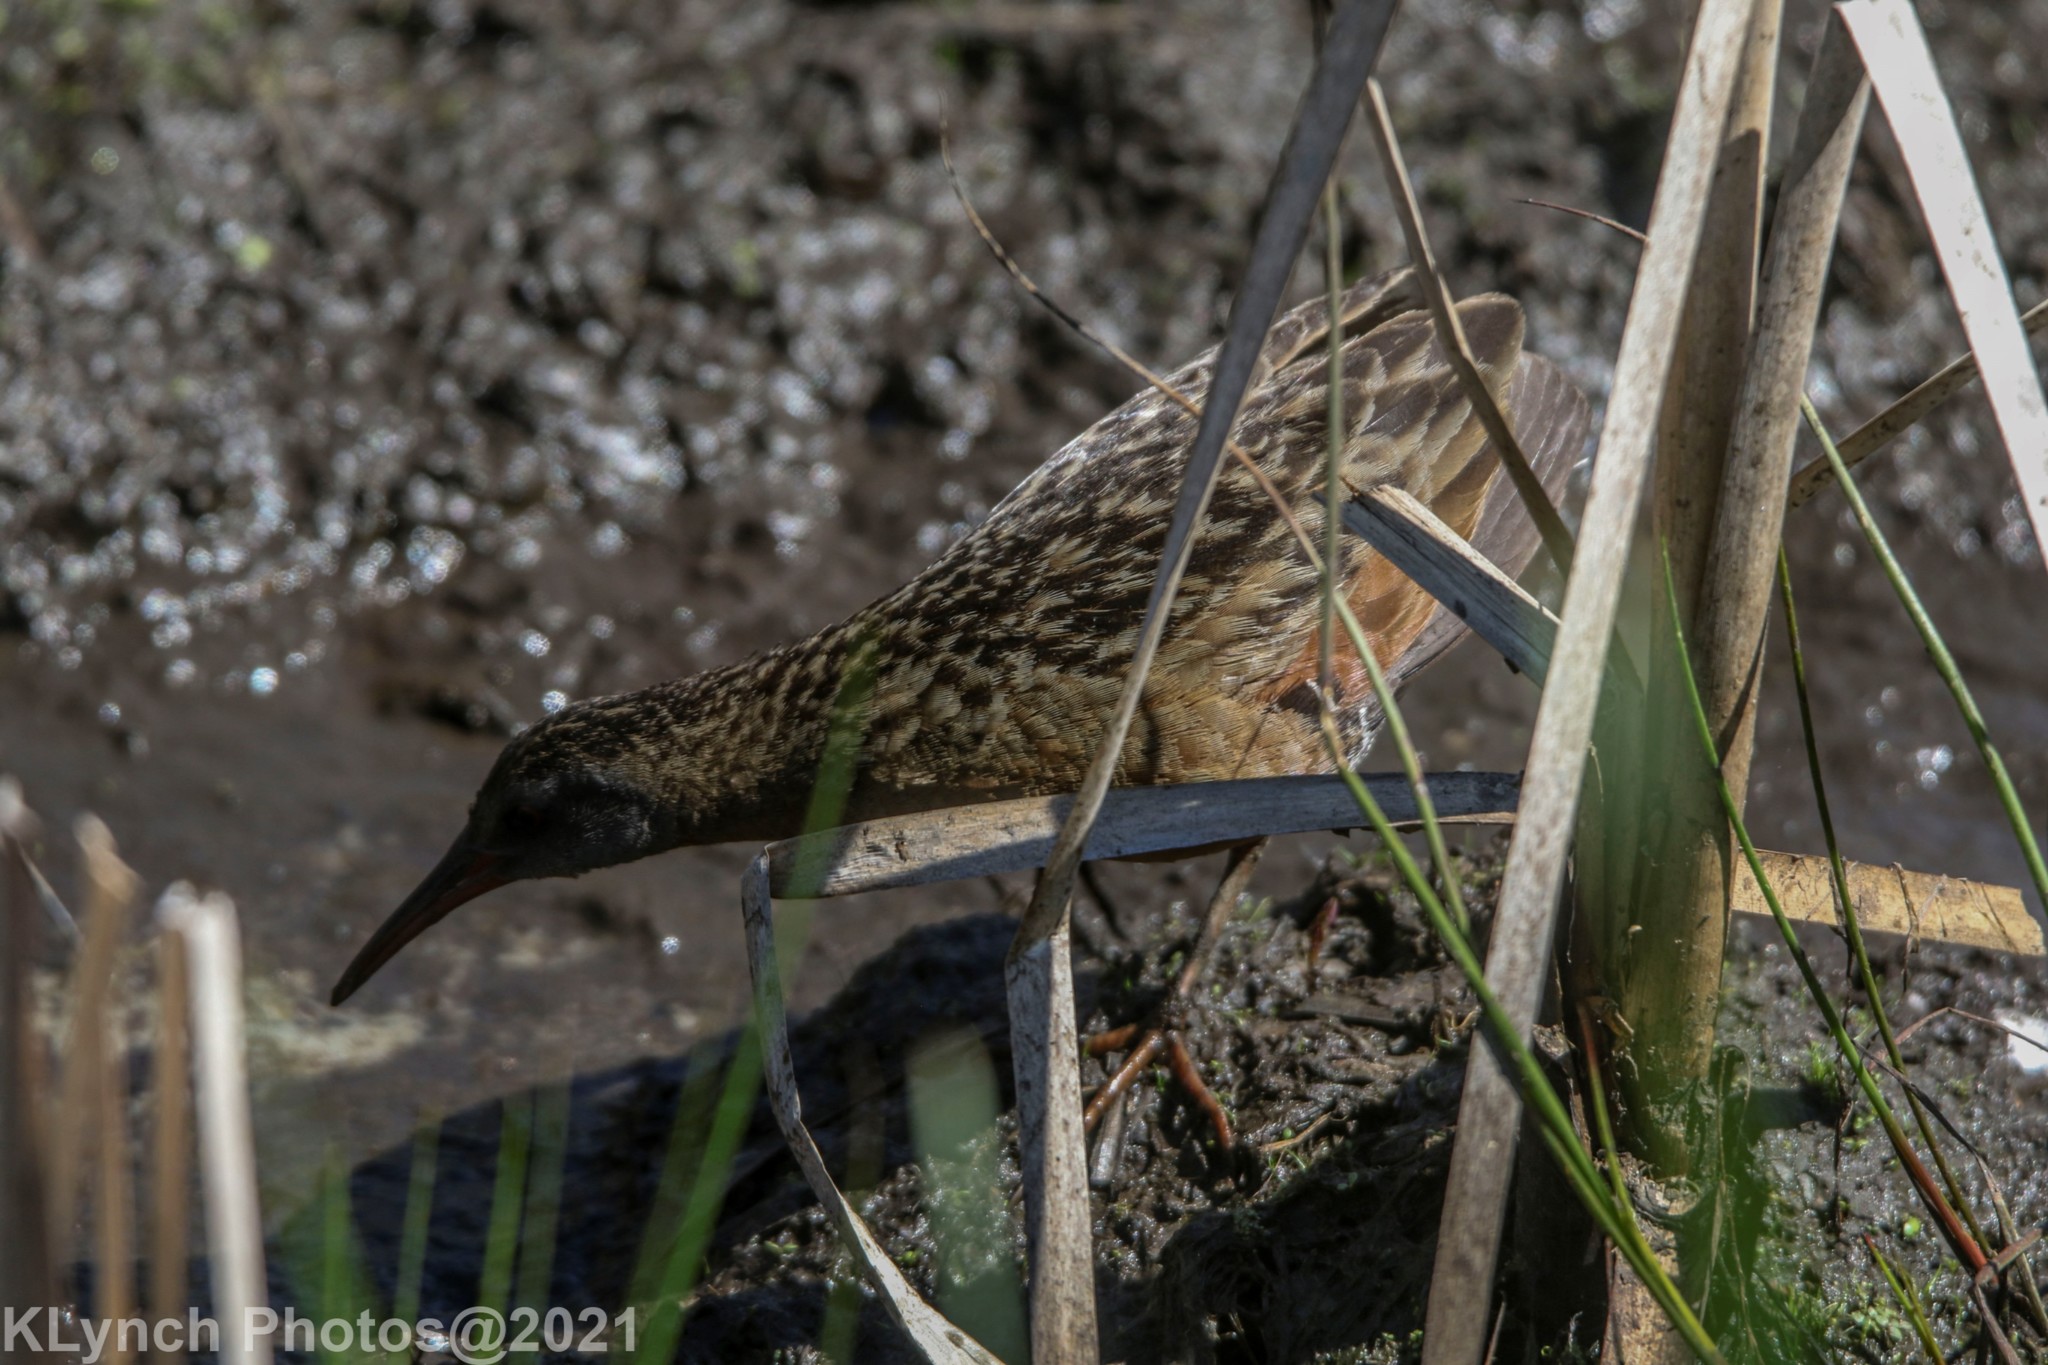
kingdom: Animalia
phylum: Chordata
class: Aves
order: Gruiformes
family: Rallidae
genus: Rallus
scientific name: Rallus limicola
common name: Virginia rail
